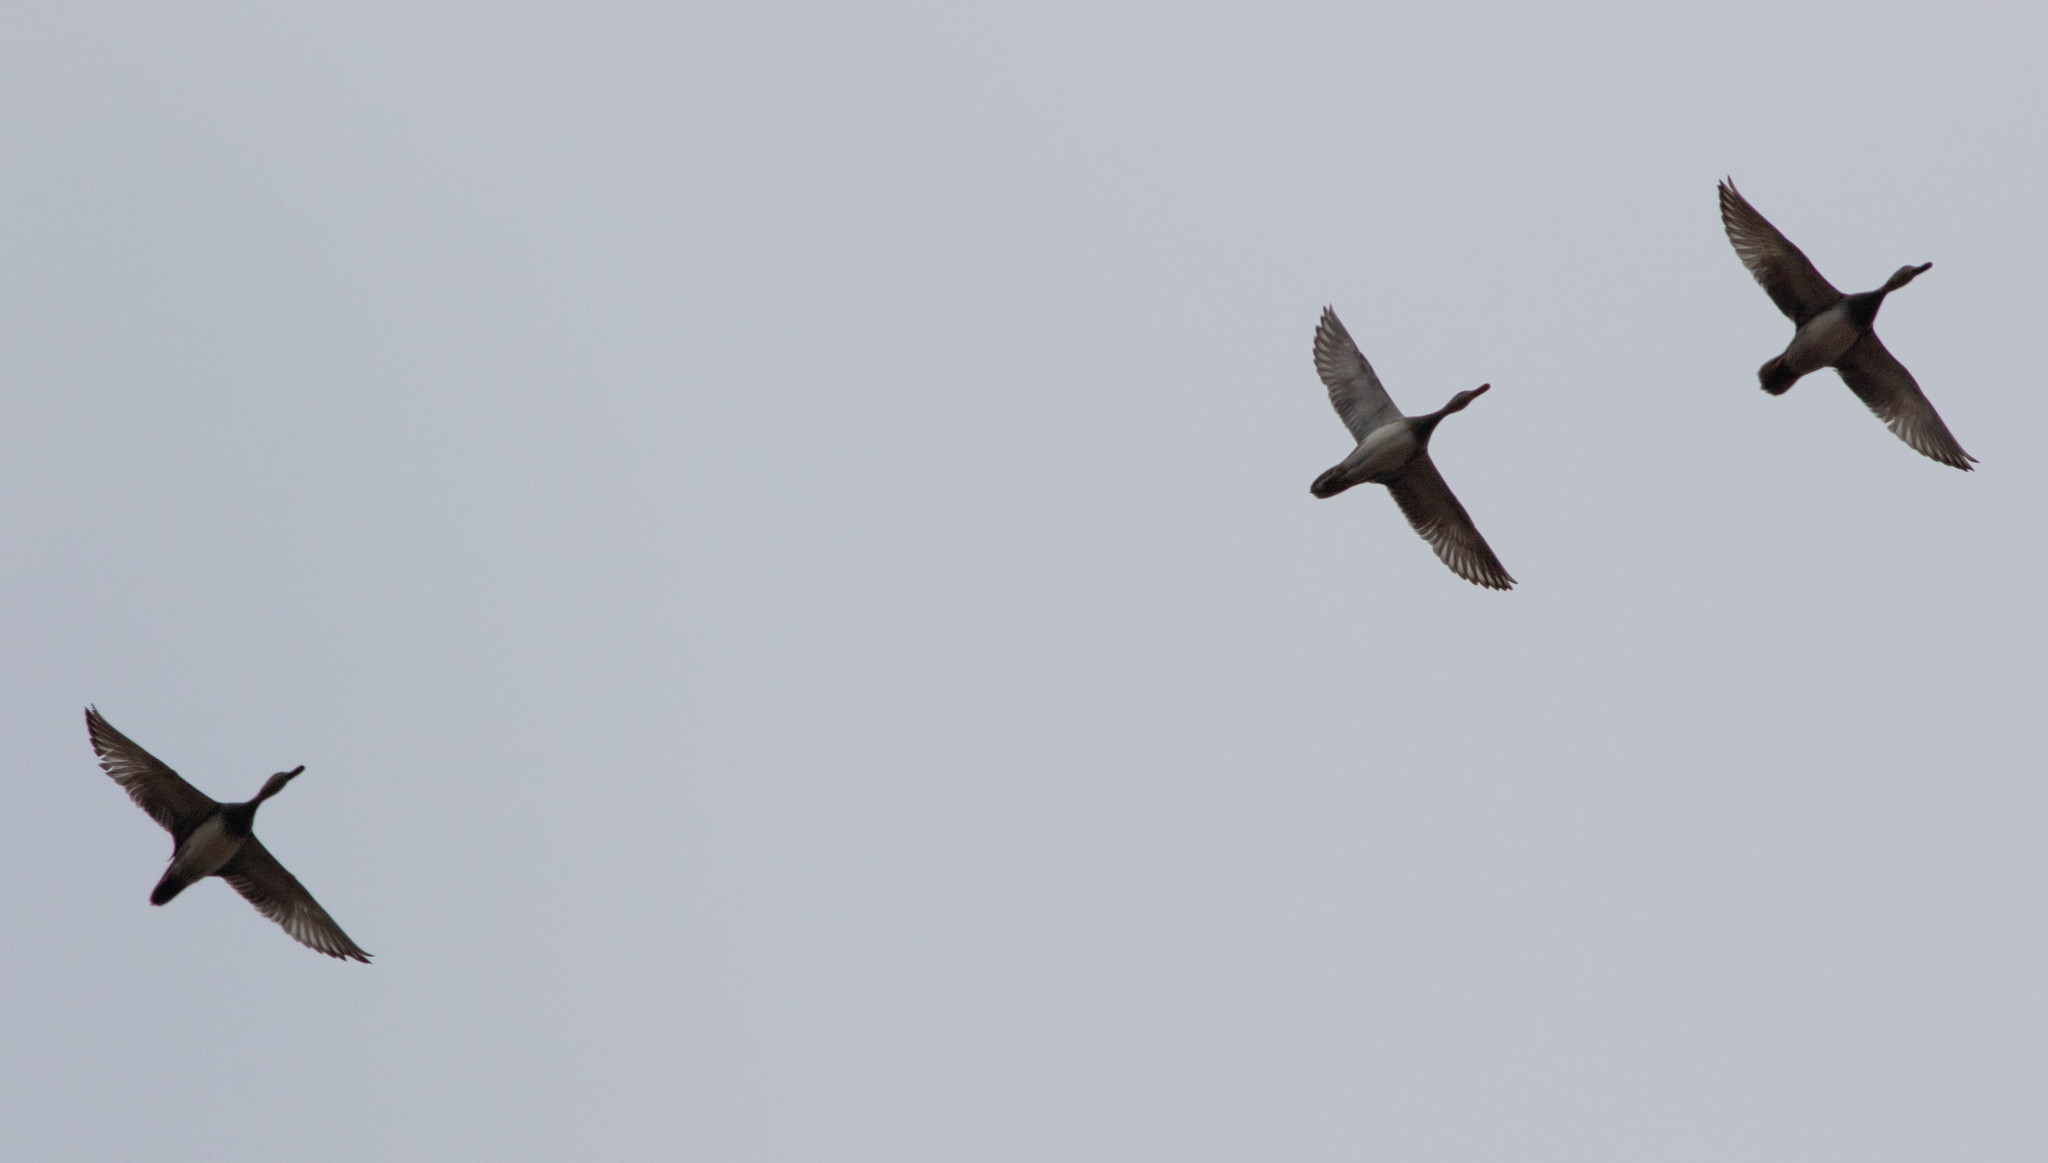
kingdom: Animalia
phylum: Chordata
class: Aves
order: Anseriformes
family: Anatidae
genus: Mareca
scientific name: Mareca strepera
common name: Gadwall
